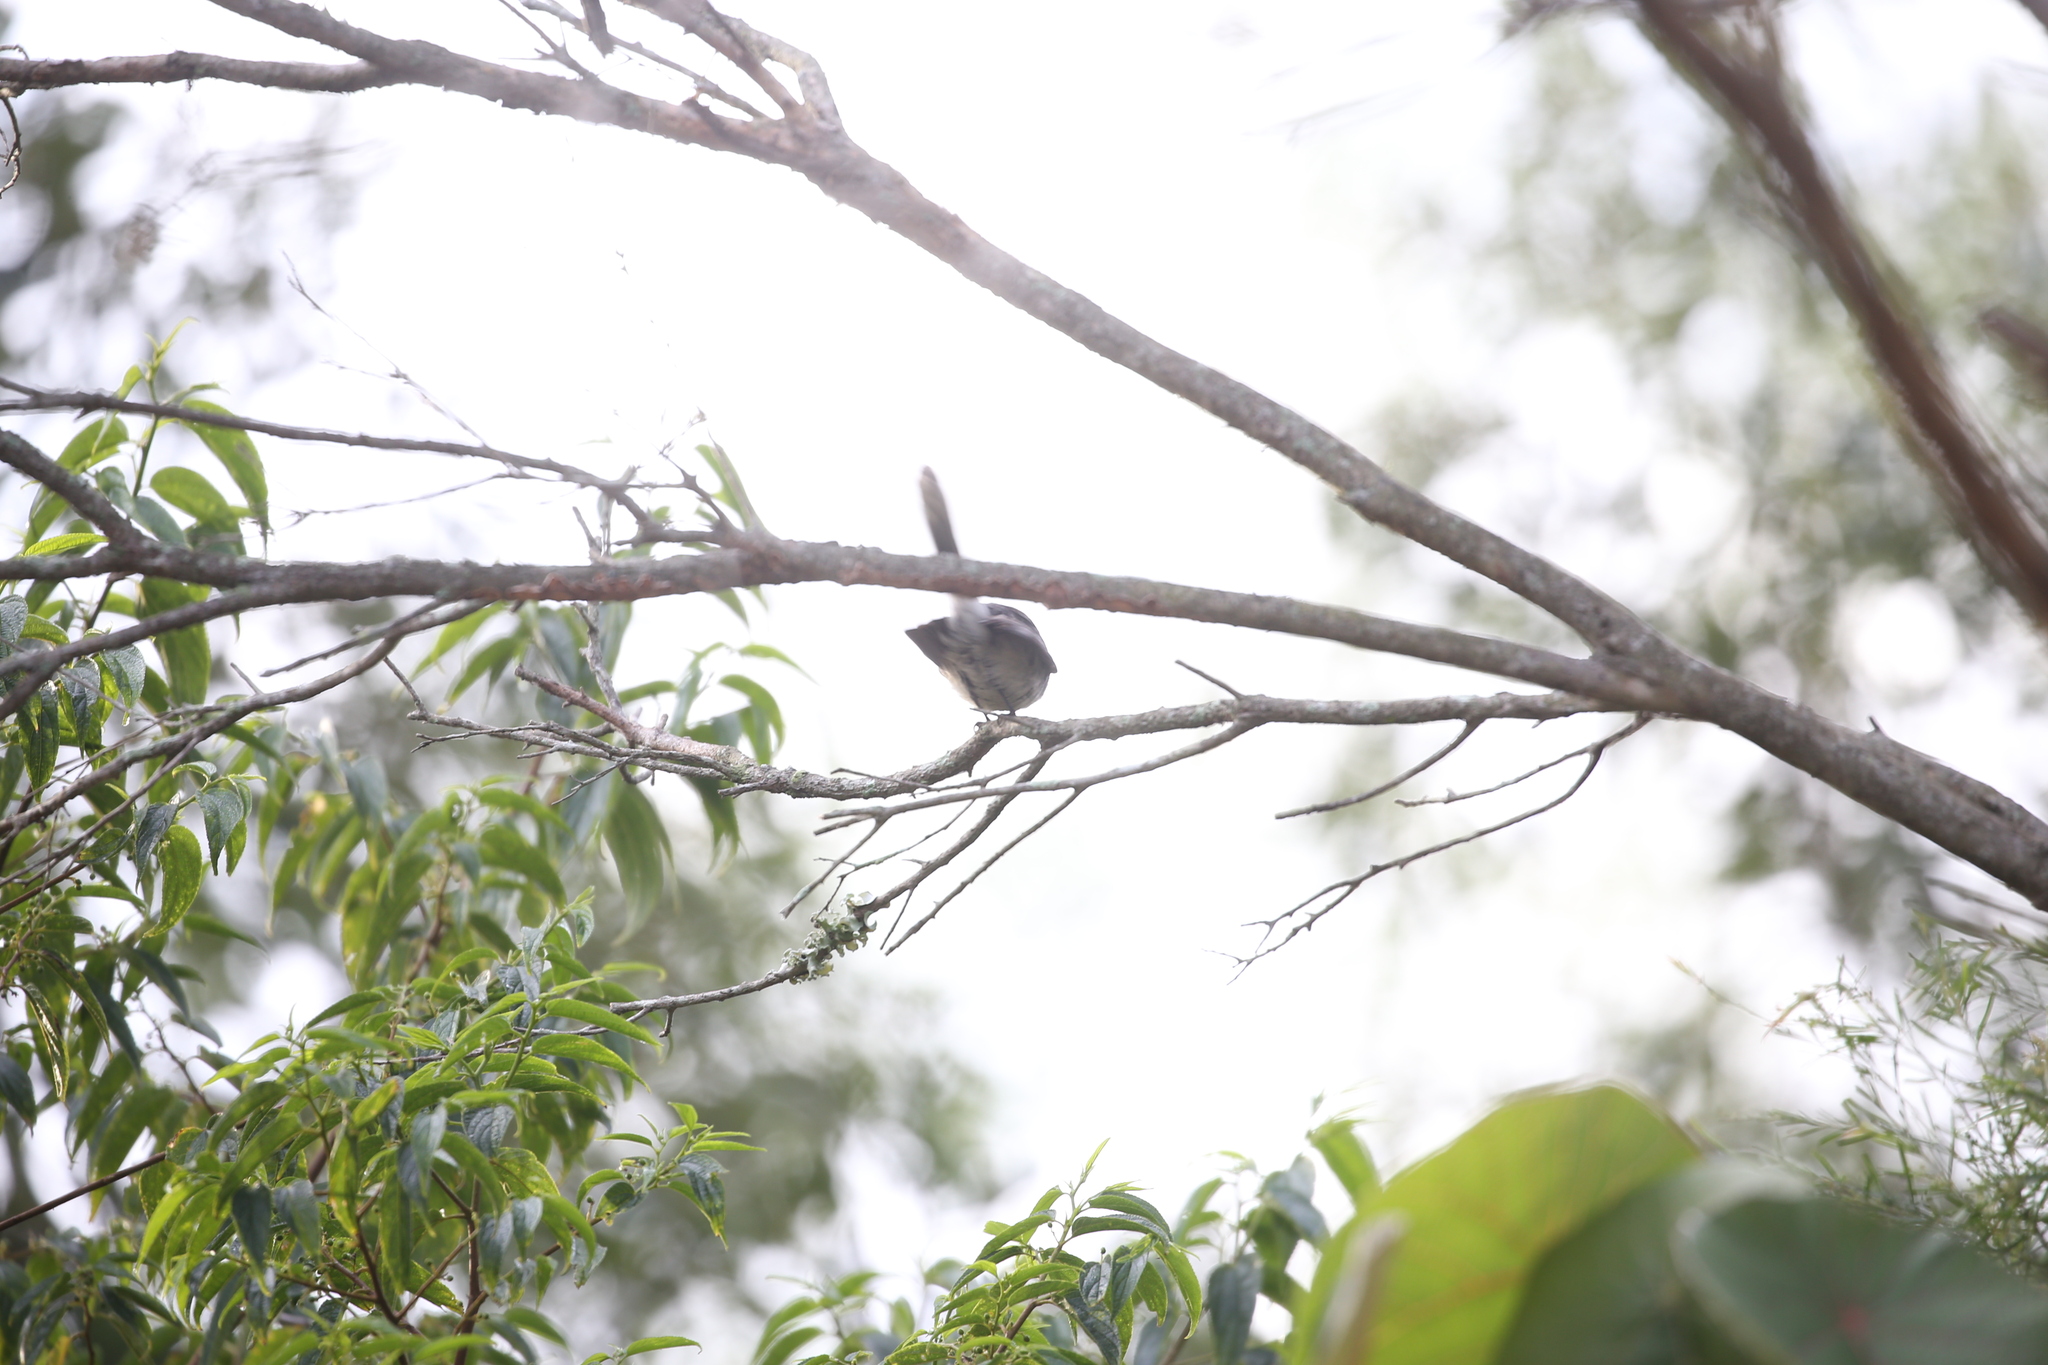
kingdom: Animalia
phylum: Chordata
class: Aves
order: Passeriformes
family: Rhipiduridae
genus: Rhipidura
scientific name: Rhipidura albiscapa
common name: Grey fantail
